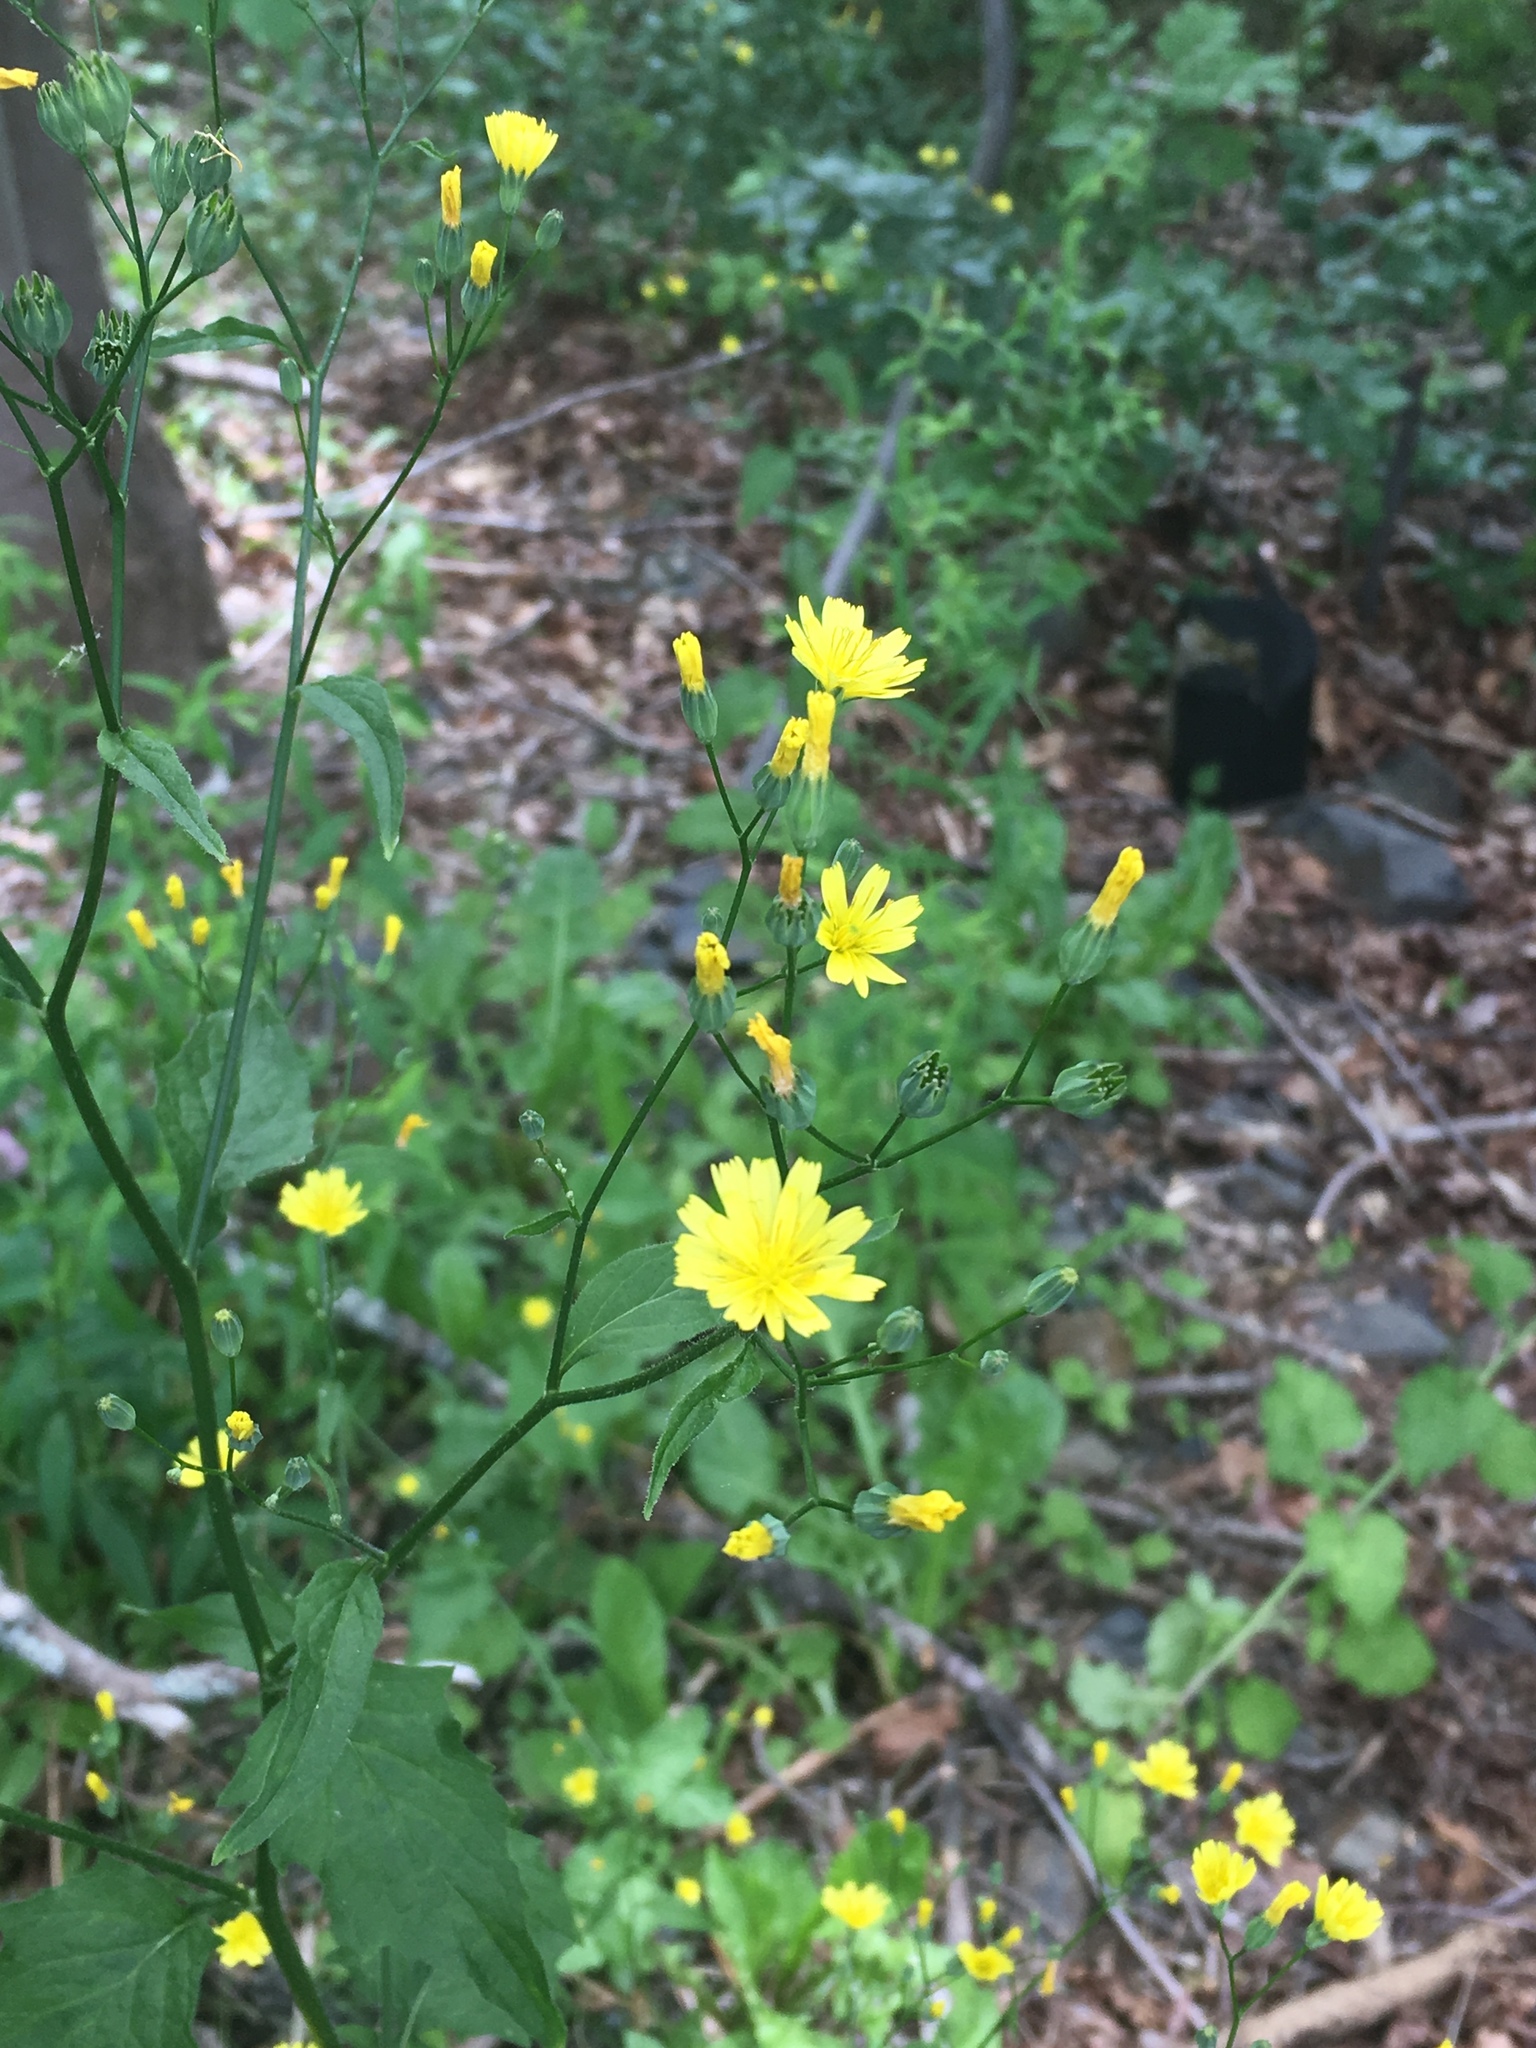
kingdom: Plantae
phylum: Tracheophyta
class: Magnoliopsida
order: Asterales
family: Asteraceae
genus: Lapsana
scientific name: Lapsana communis
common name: Nipplewort
